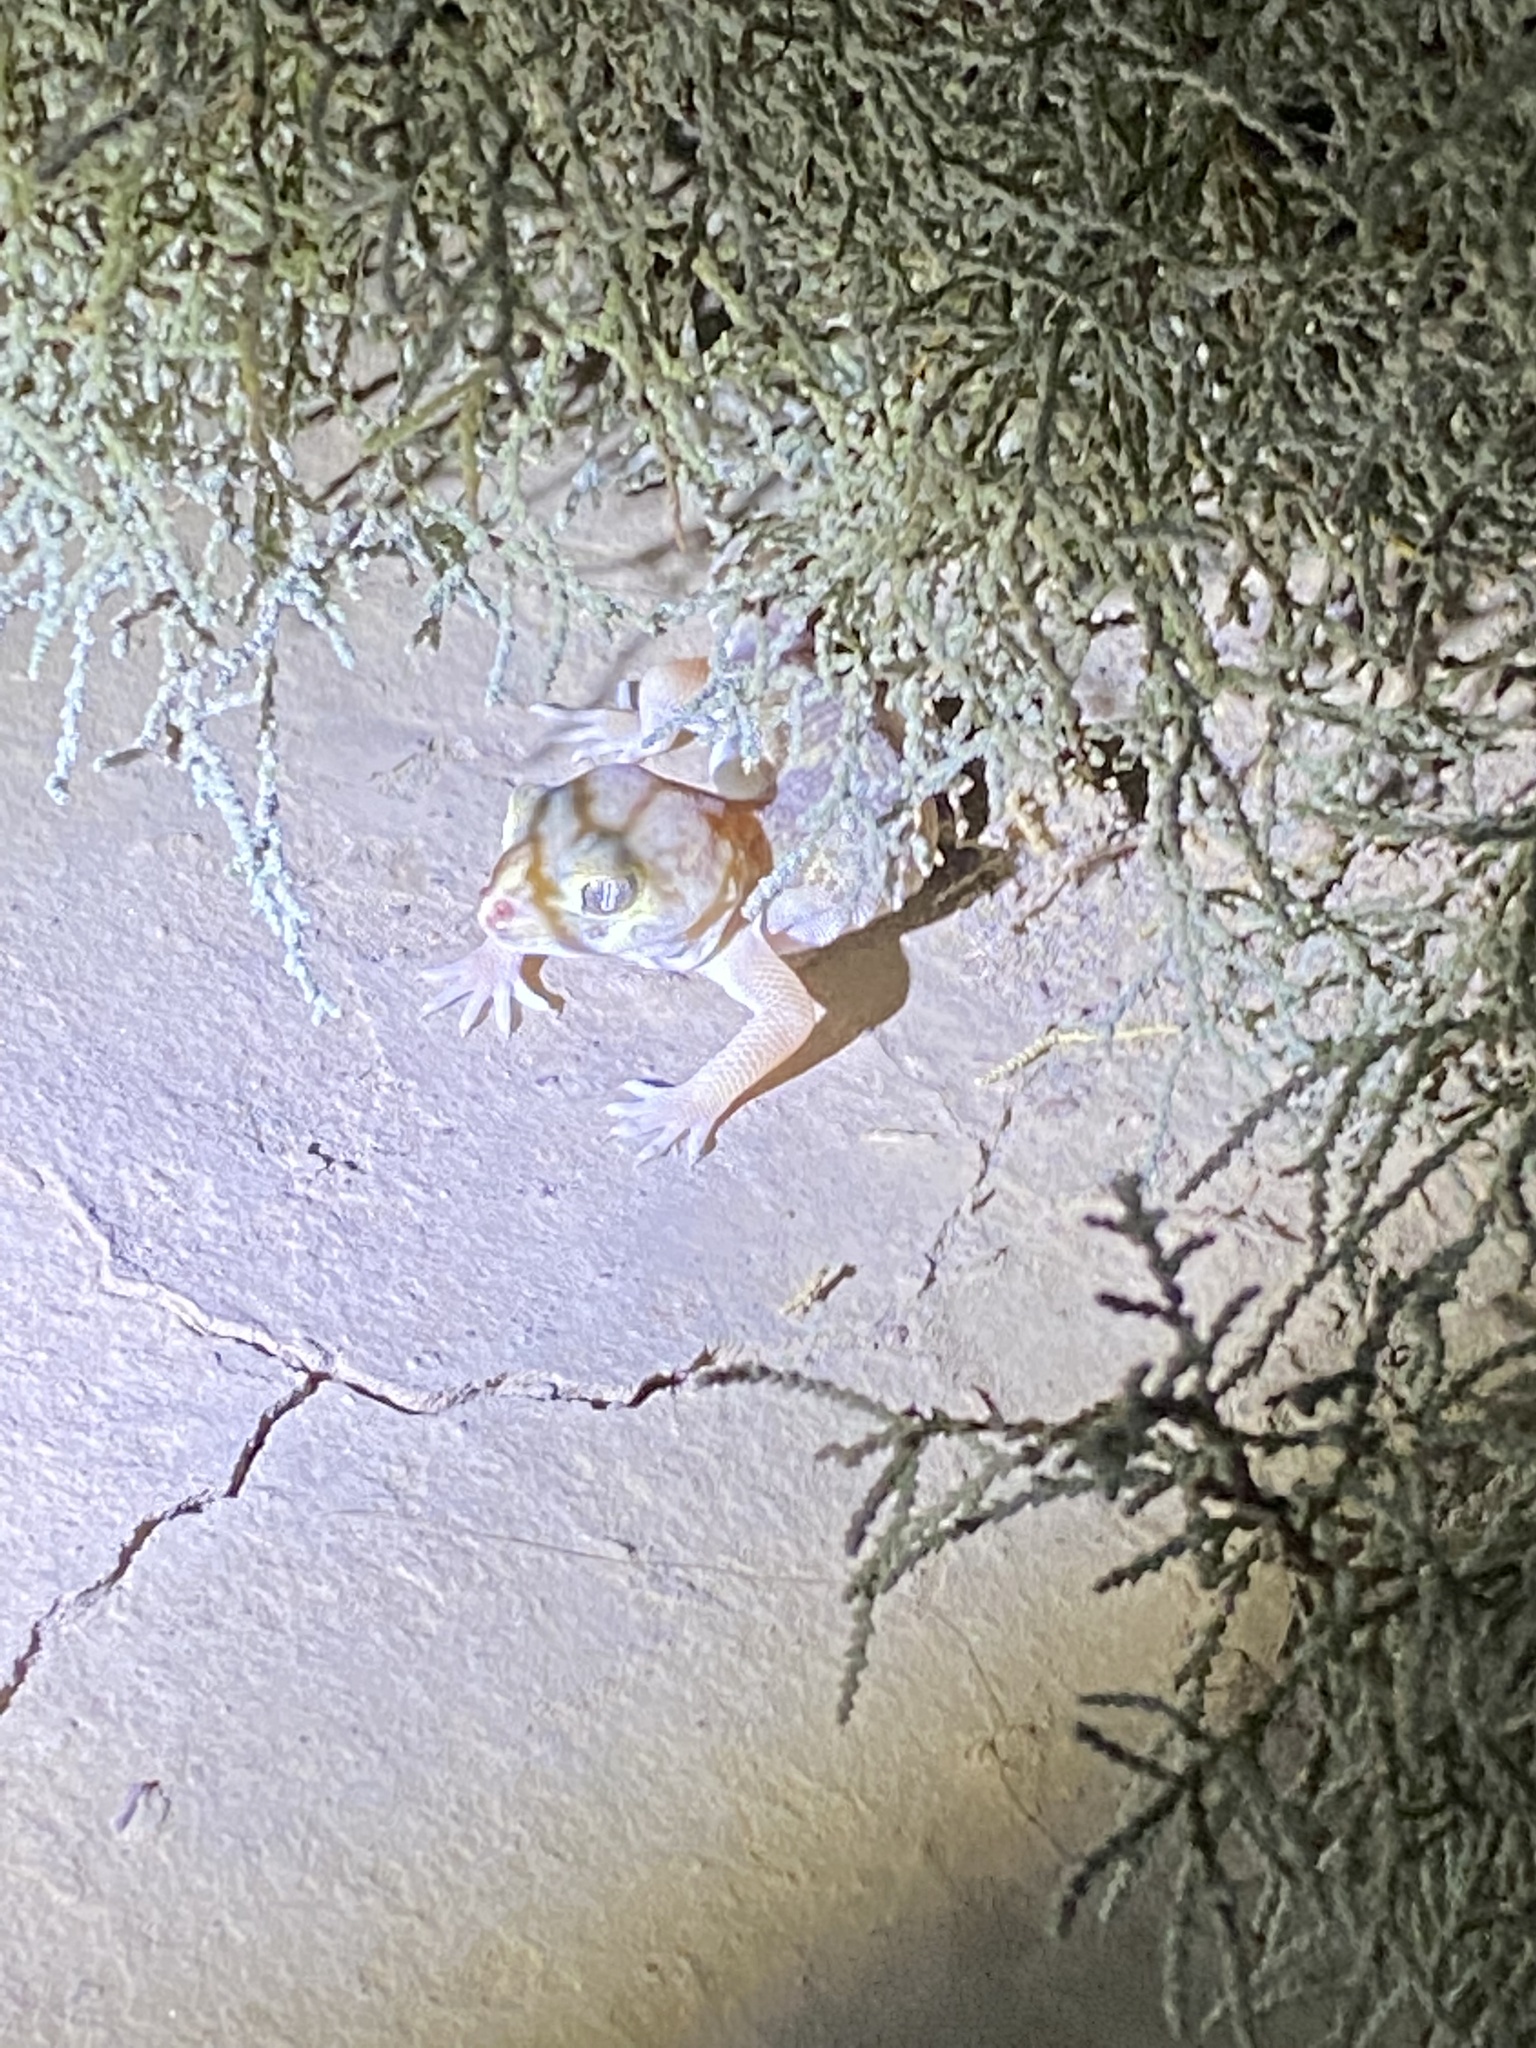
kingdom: Animalia
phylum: Chordata
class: Squamata
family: Sphaerodactylidae
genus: Teratoscincus
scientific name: Teratoscincus bedriagai
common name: Bedriaga's plate-tailed gecko
